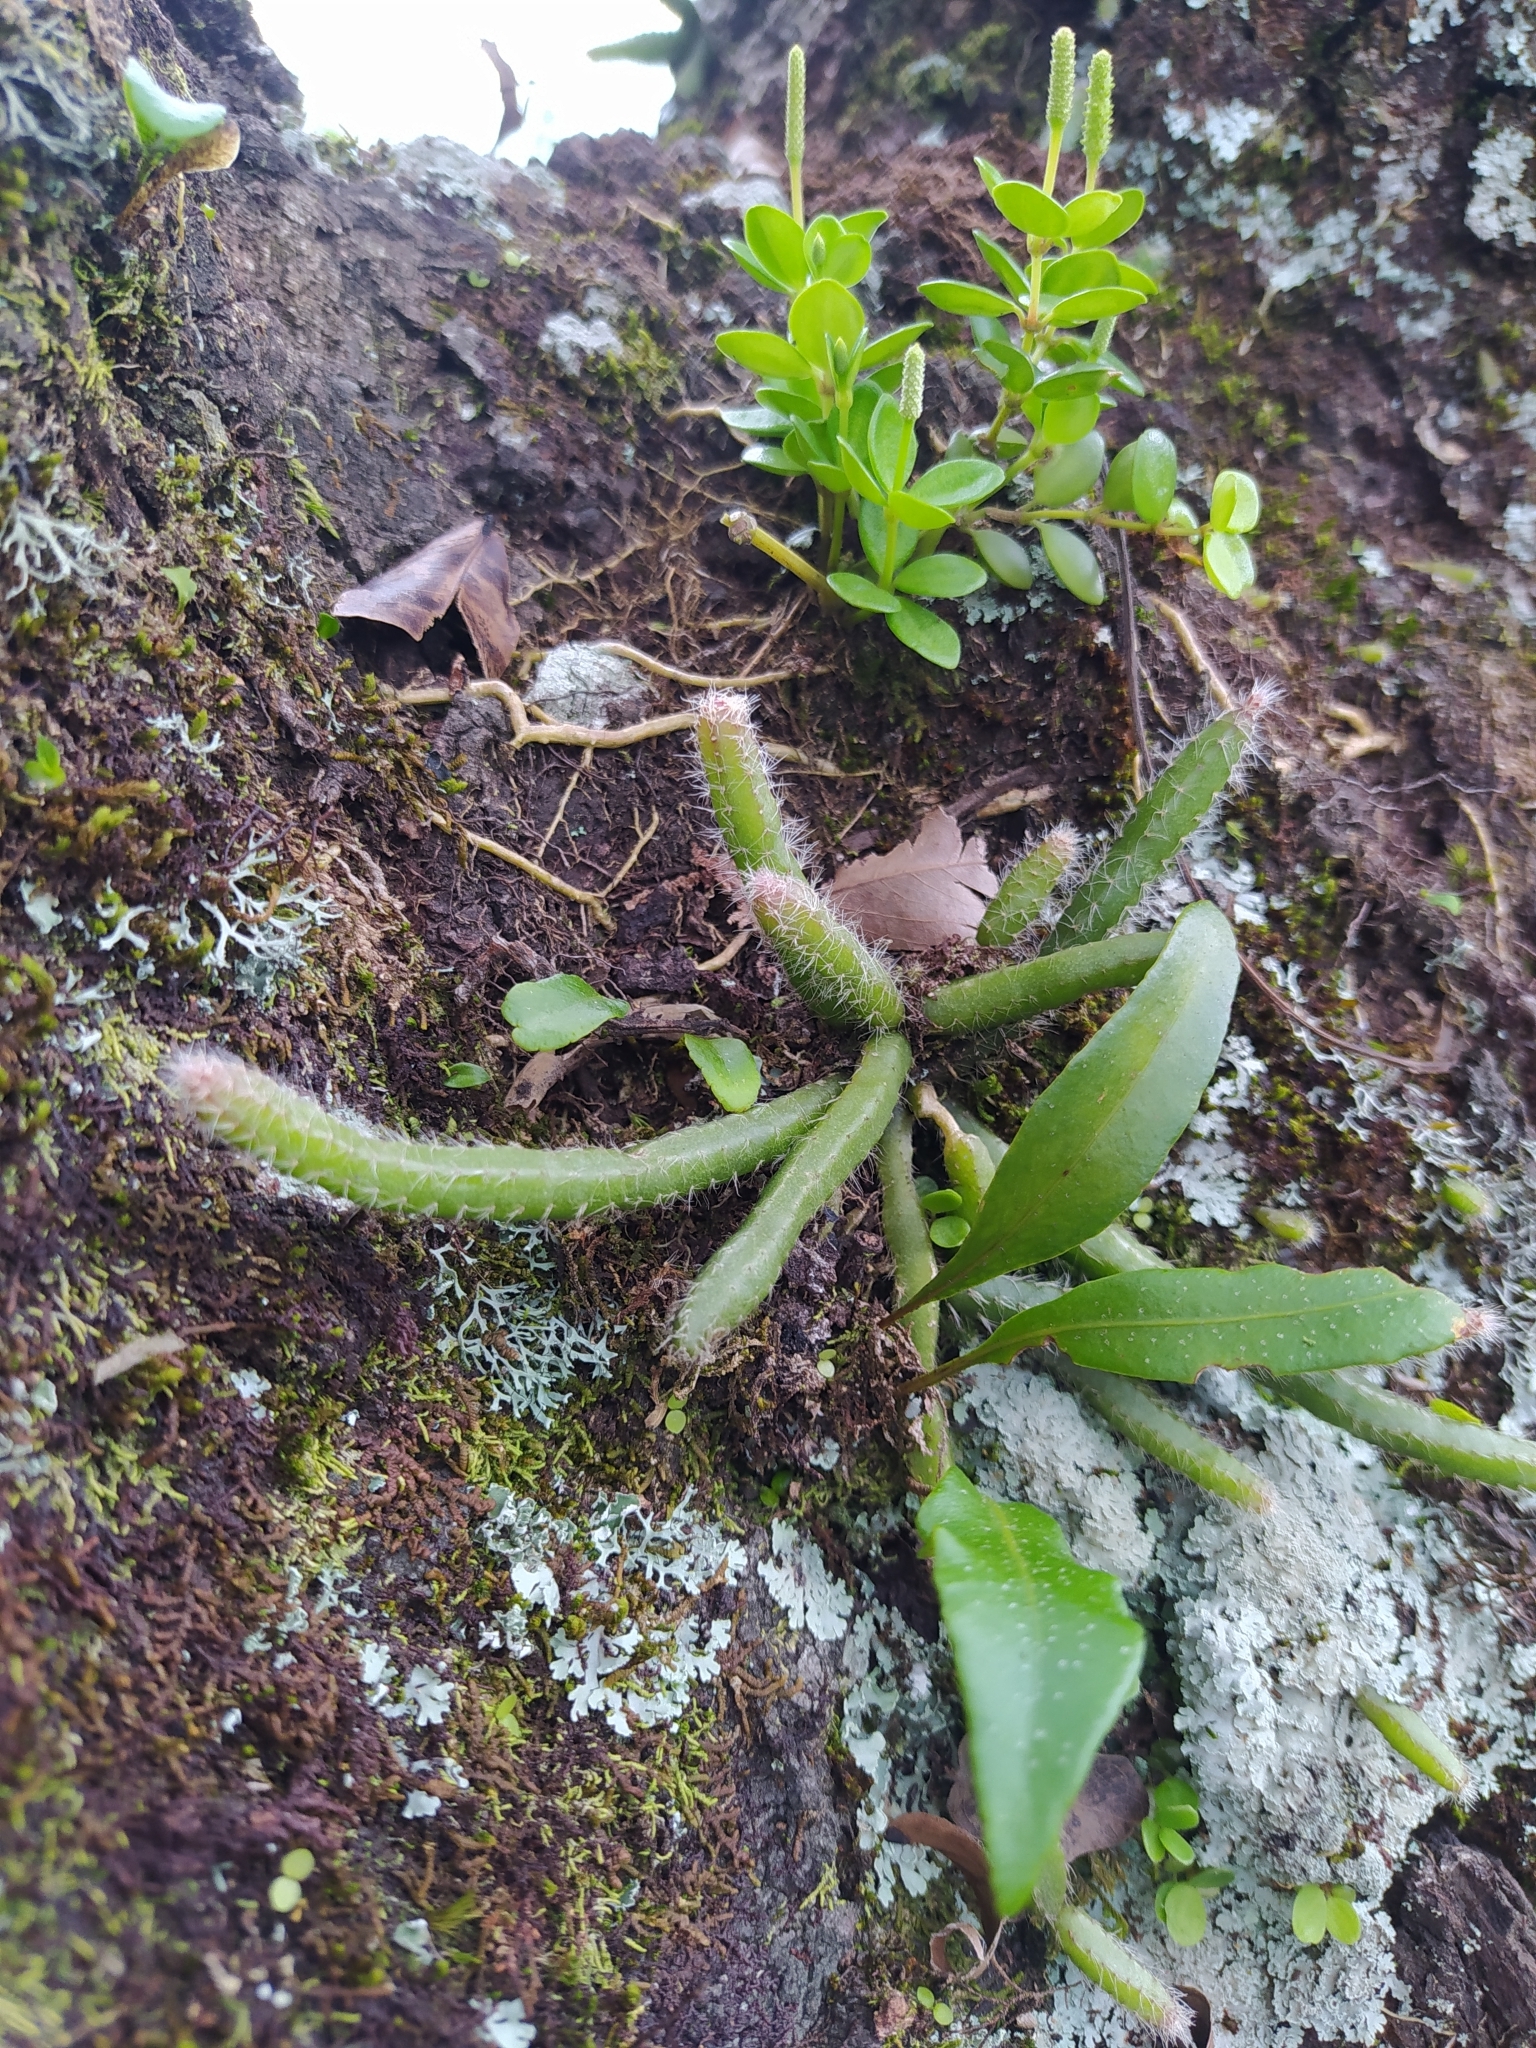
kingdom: Plantae
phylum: Tracheophyta
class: Magnoliopsida
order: Caryophyllales
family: Cactaceae
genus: Rhipsalis
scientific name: Rhipsalis baccifera
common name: Mistletoe cactus
